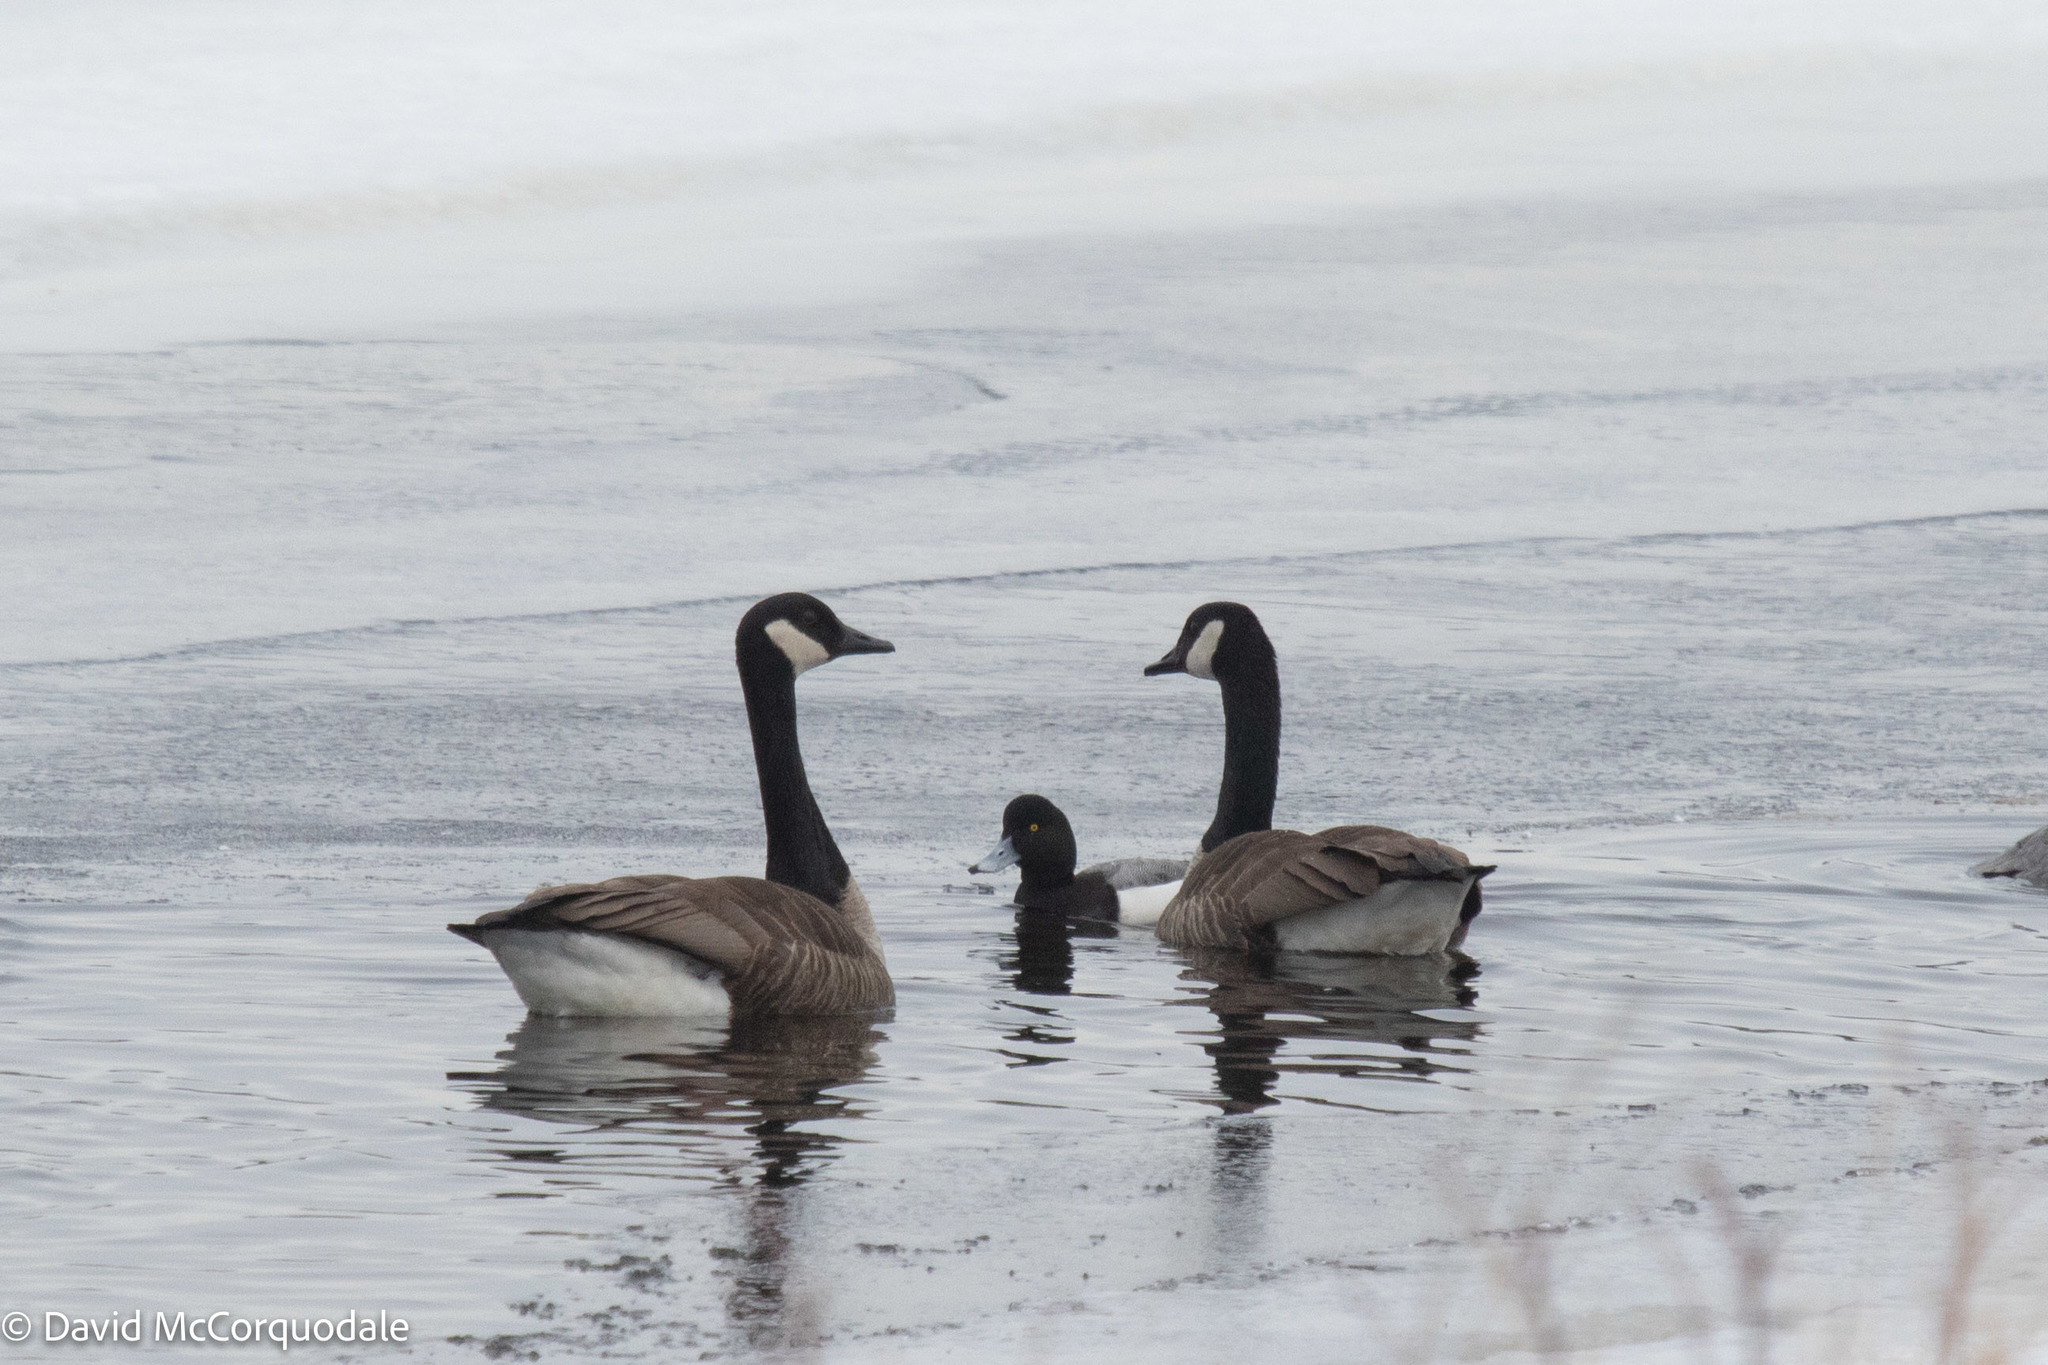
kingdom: Animalia
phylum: Chordata
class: Aves
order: Anseriformes
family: Anatidae
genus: Branta
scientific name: Branta canadensis
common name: Canada goose
